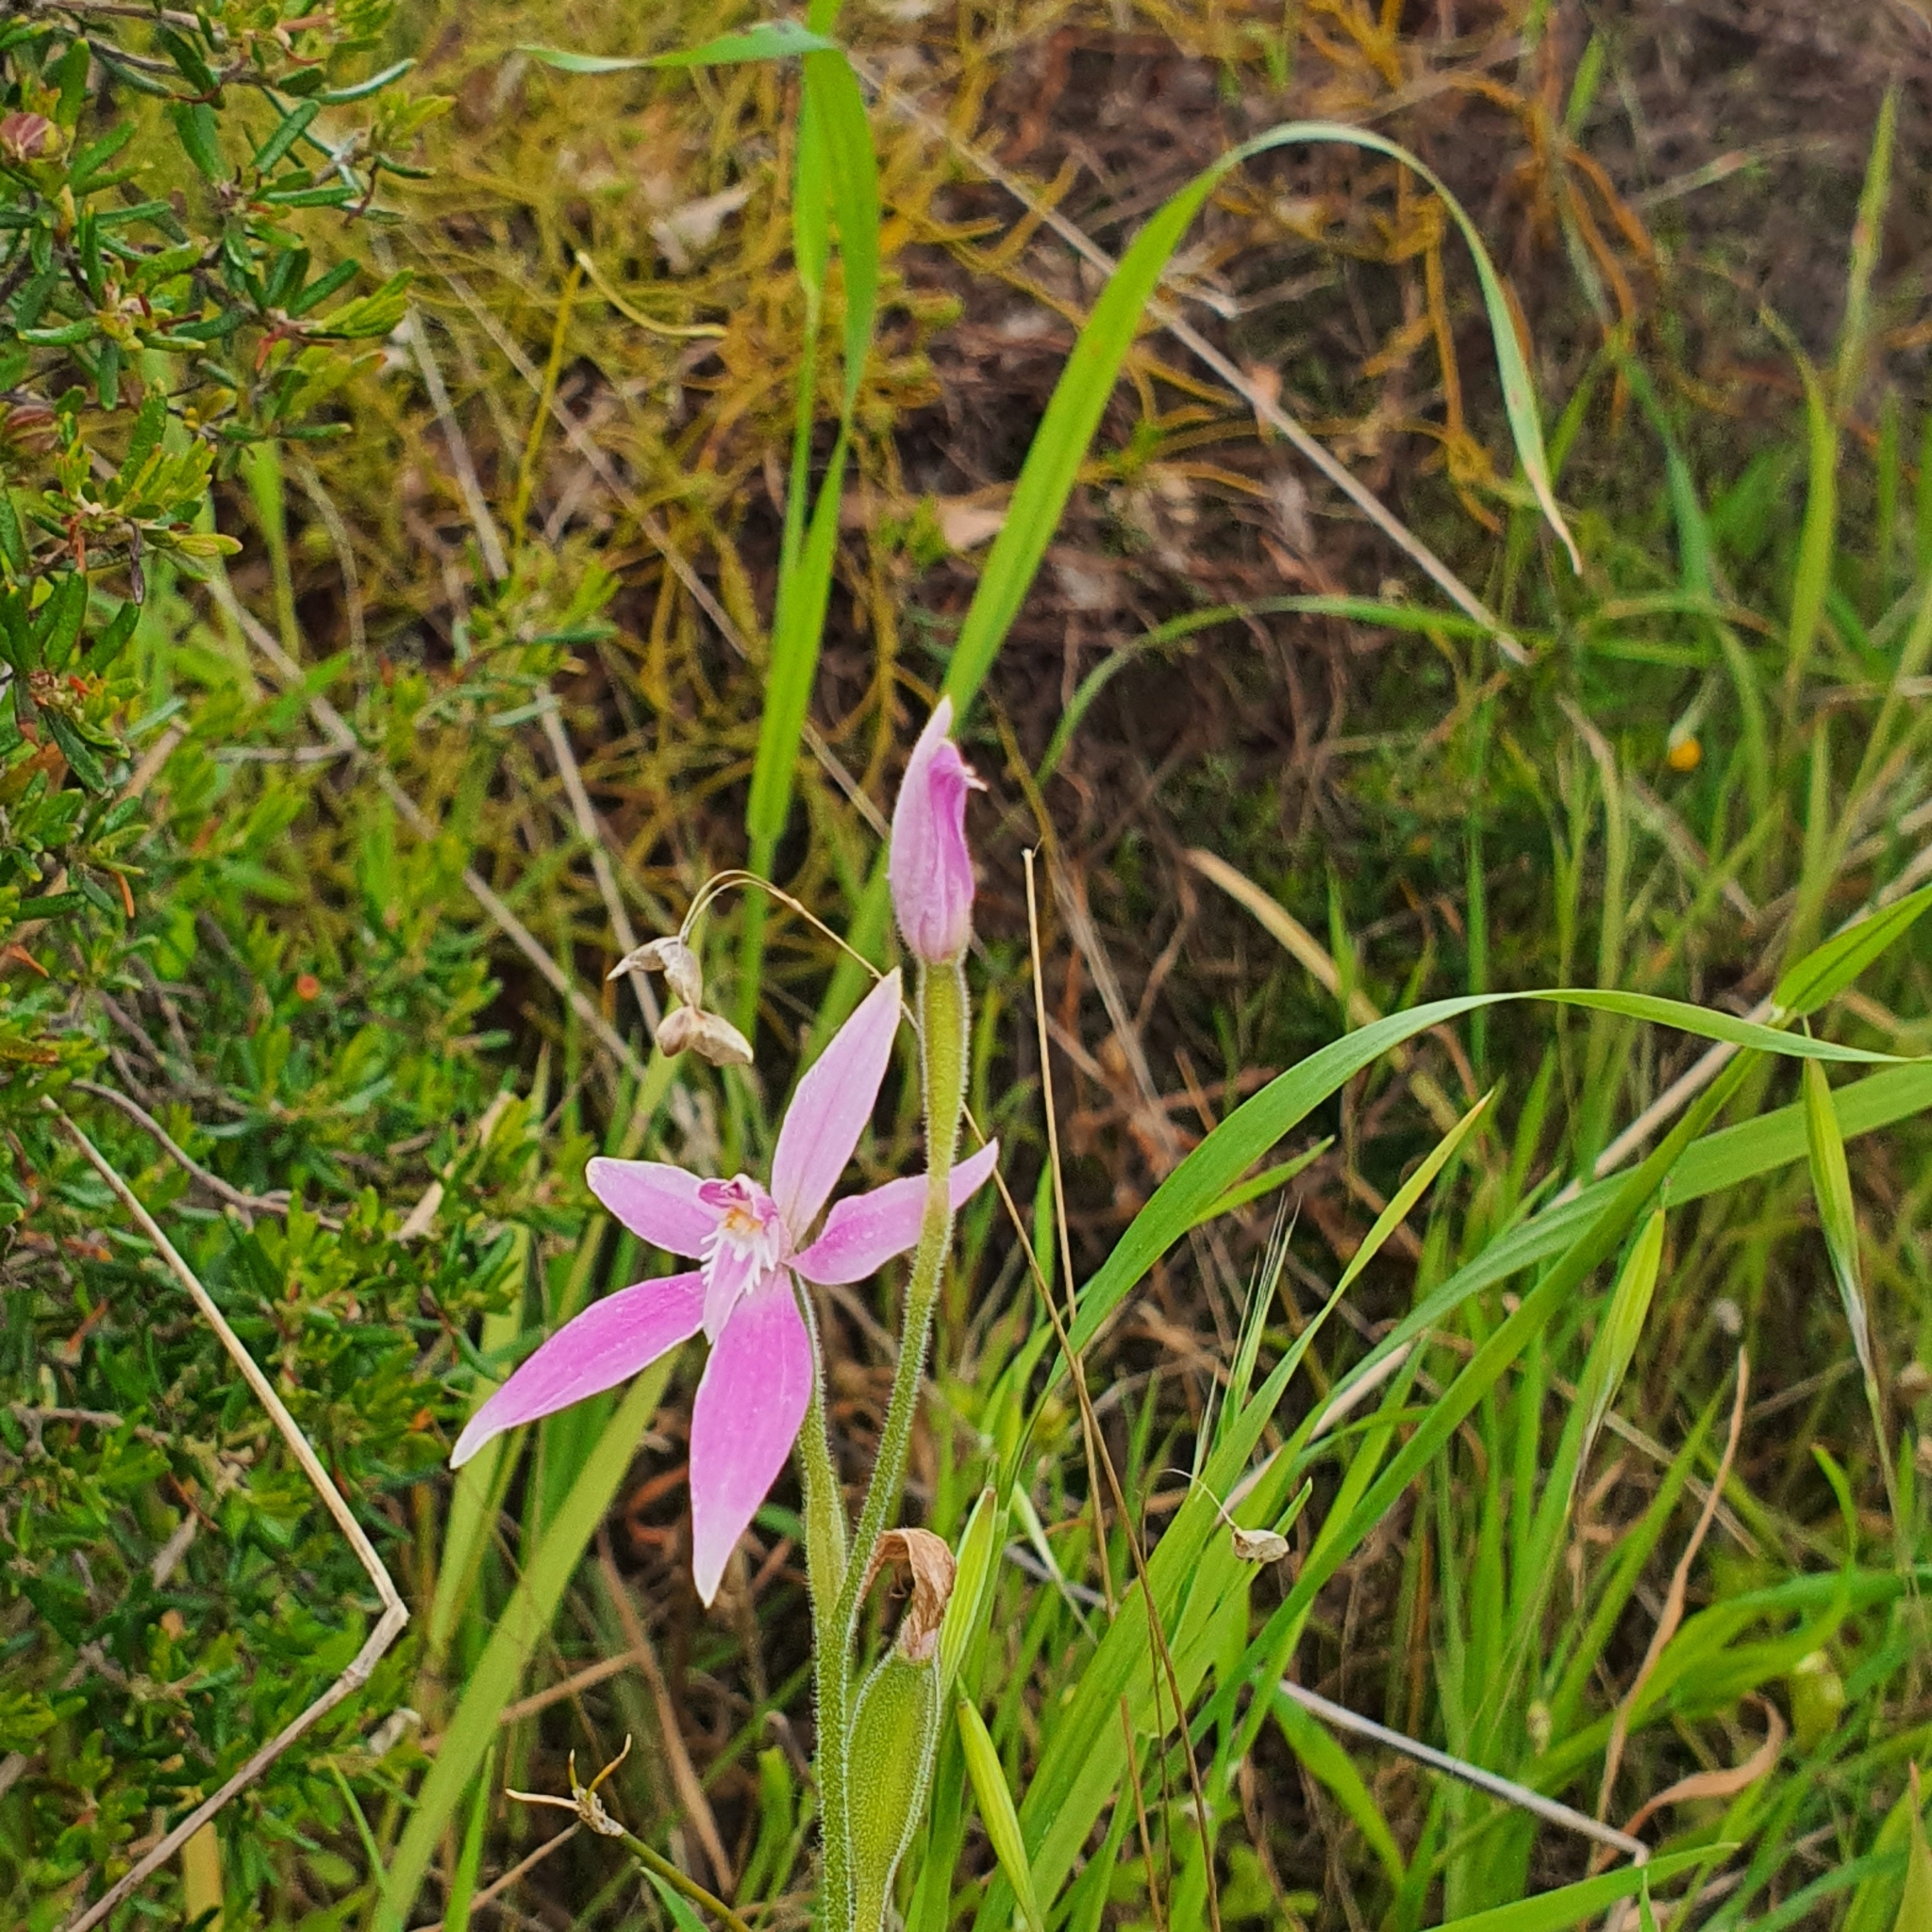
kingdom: Plantae
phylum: Tracheophyta
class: Liliopsida
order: Asparagales
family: Orchidaceae
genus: Caladenia
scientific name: Caladenia latifolia
